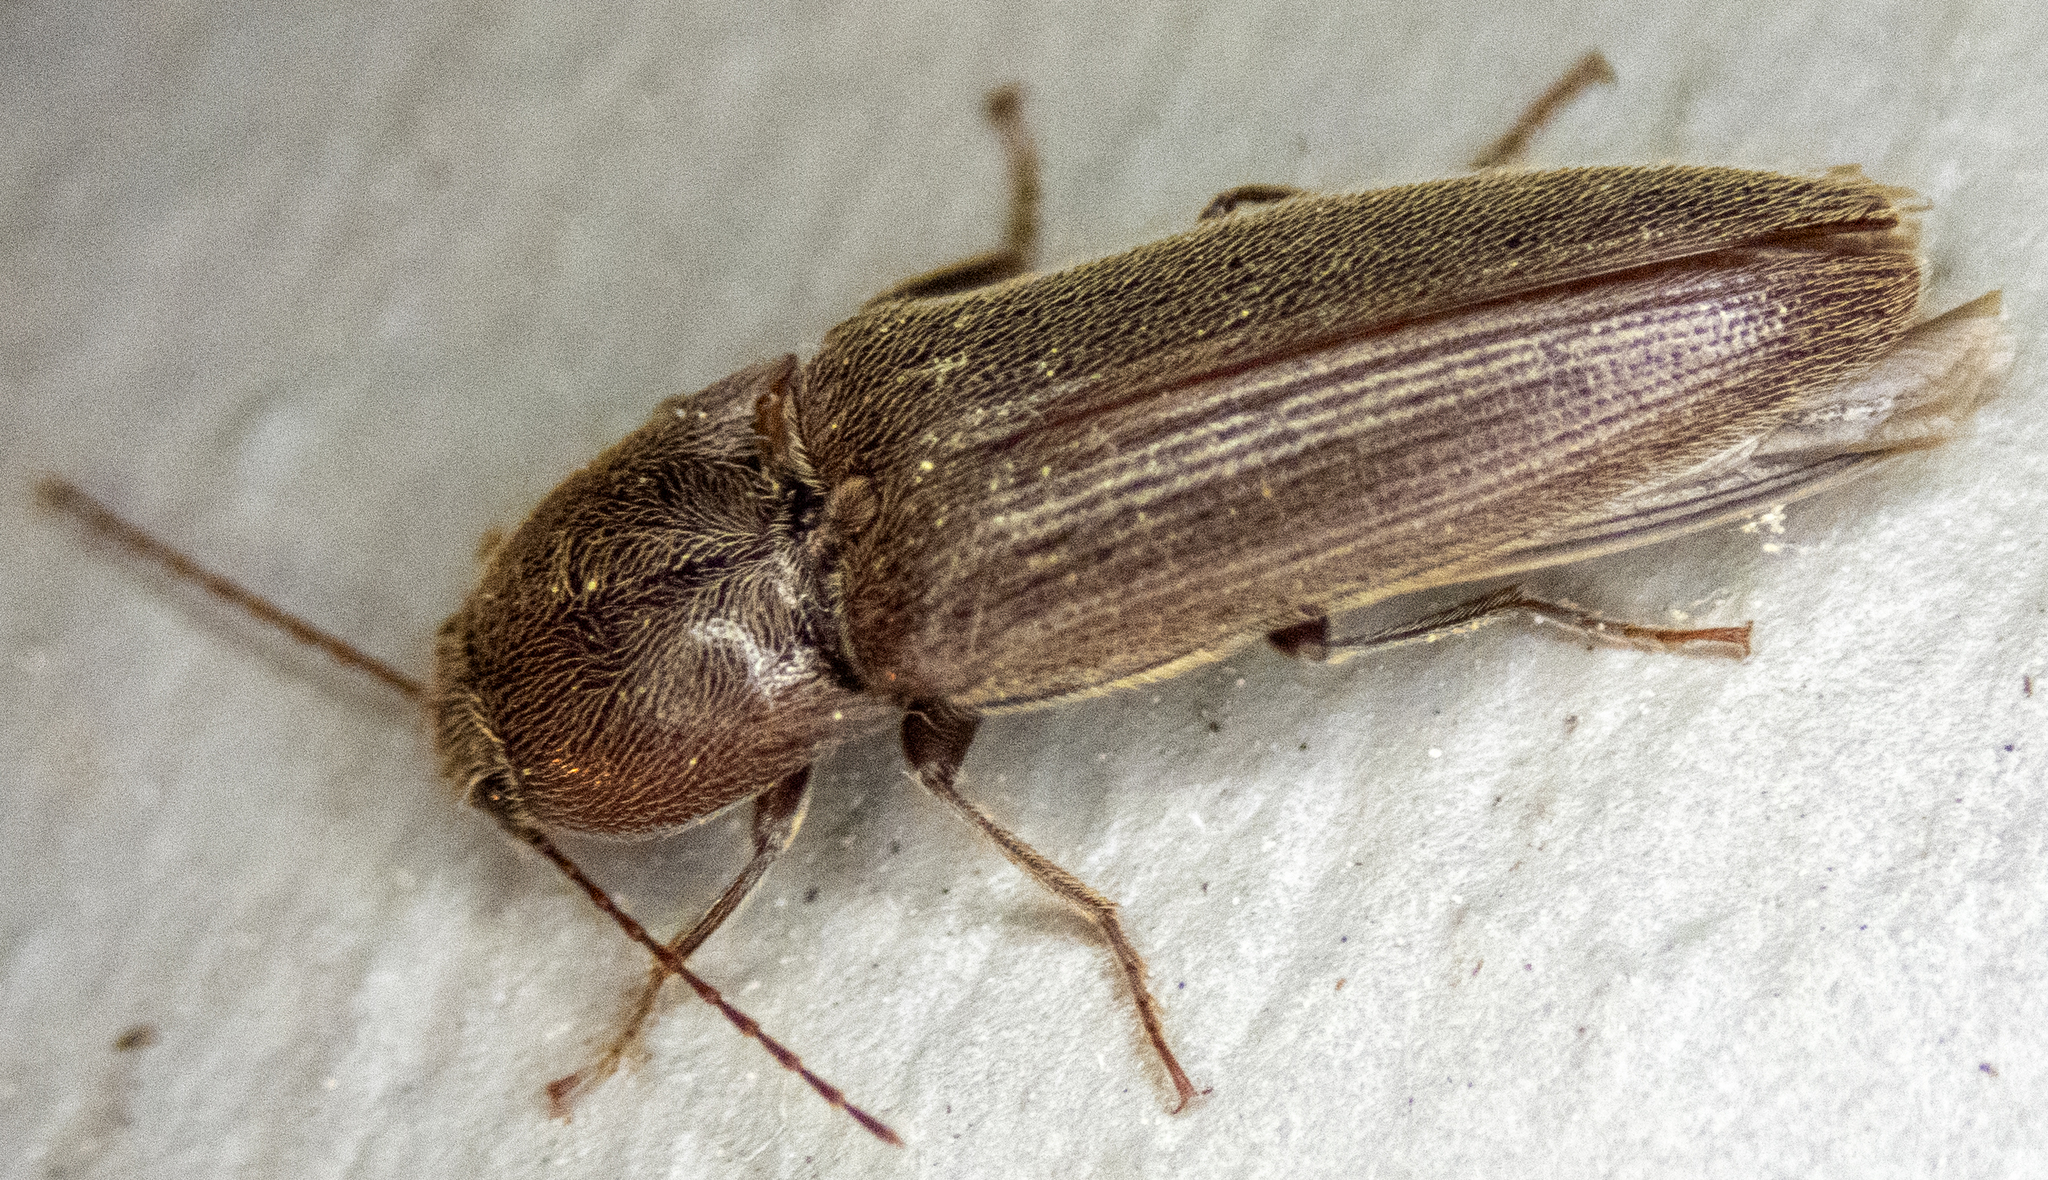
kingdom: Animalia
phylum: Arthropoda
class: Insecta
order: Coleoptera
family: Elateridae
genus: Melanotus
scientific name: Melanotus
